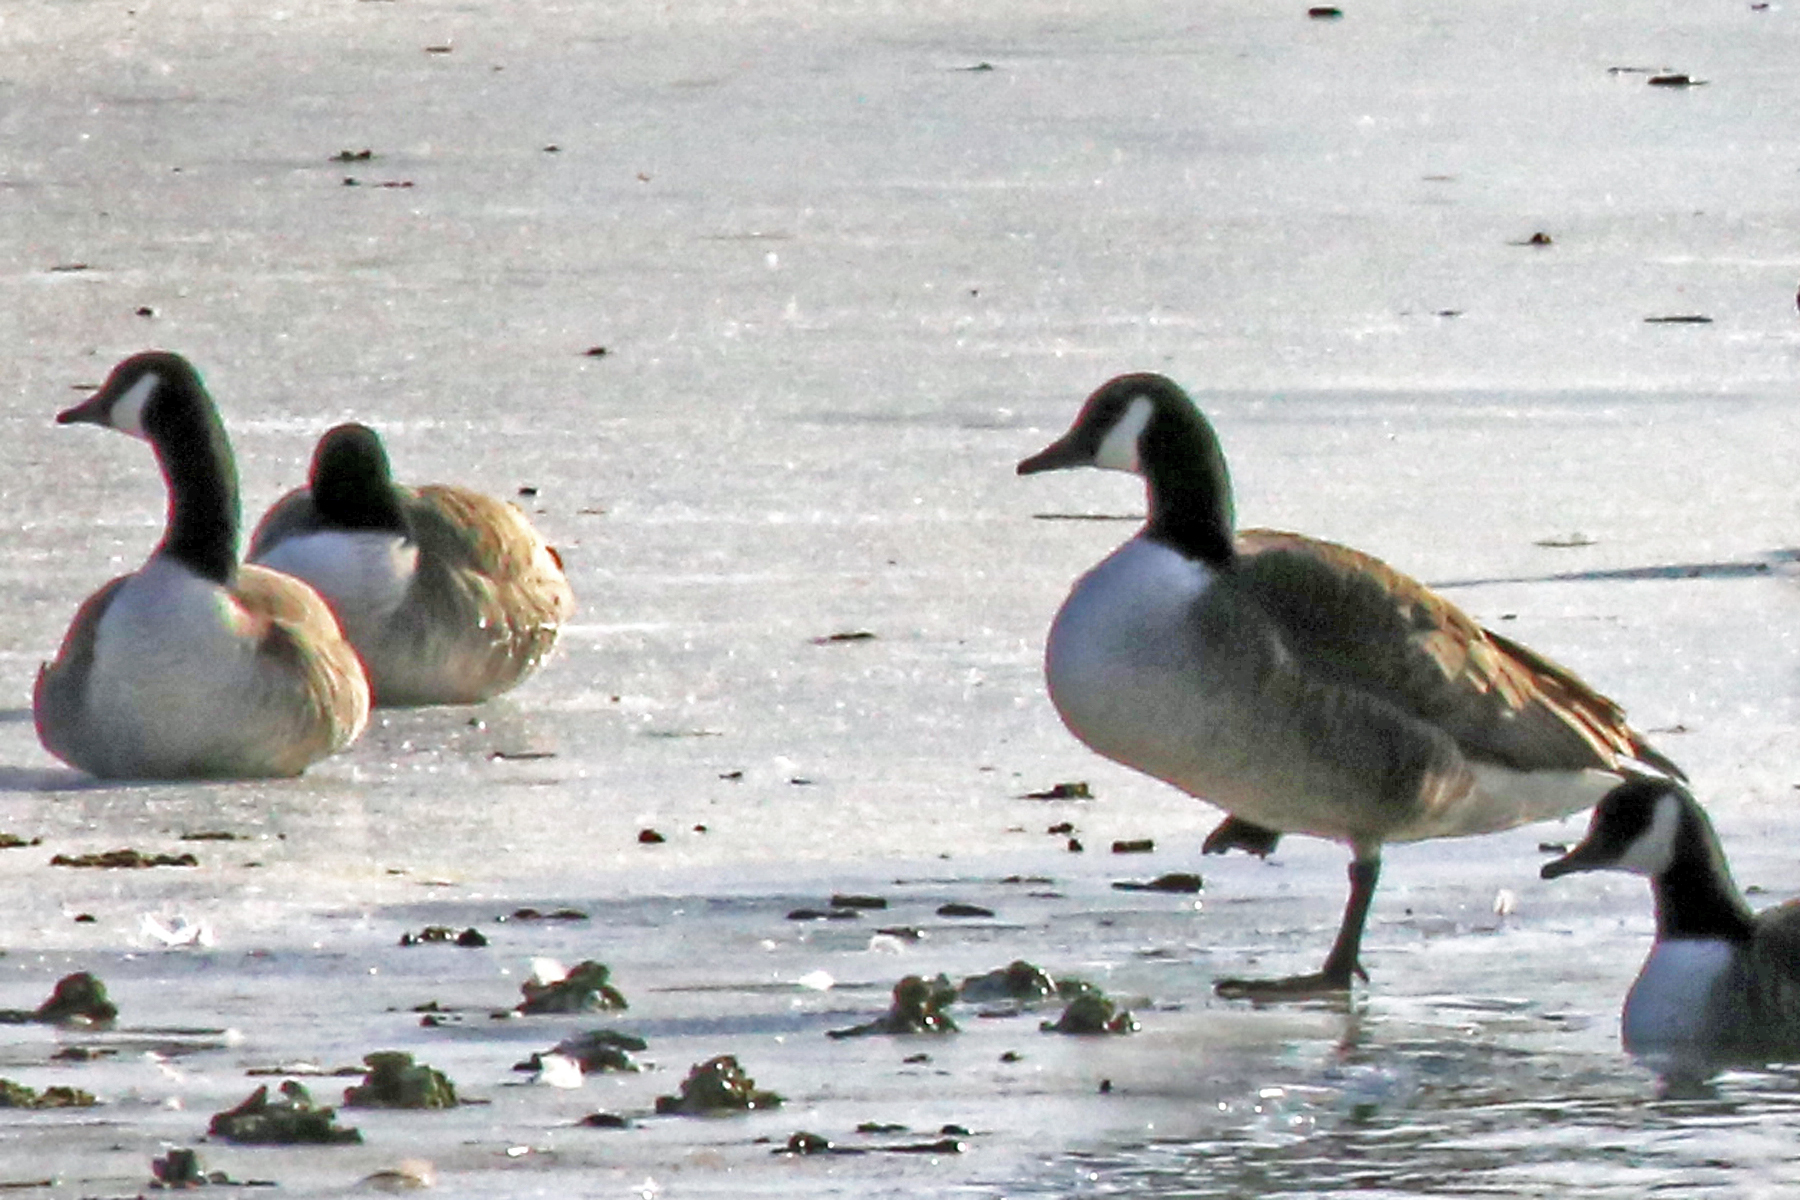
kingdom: Animalia
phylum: Chordata
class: Aves
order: Anseriformes
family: Anatidae
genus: Branta
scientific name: Branta canadensis
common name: Canada goose
